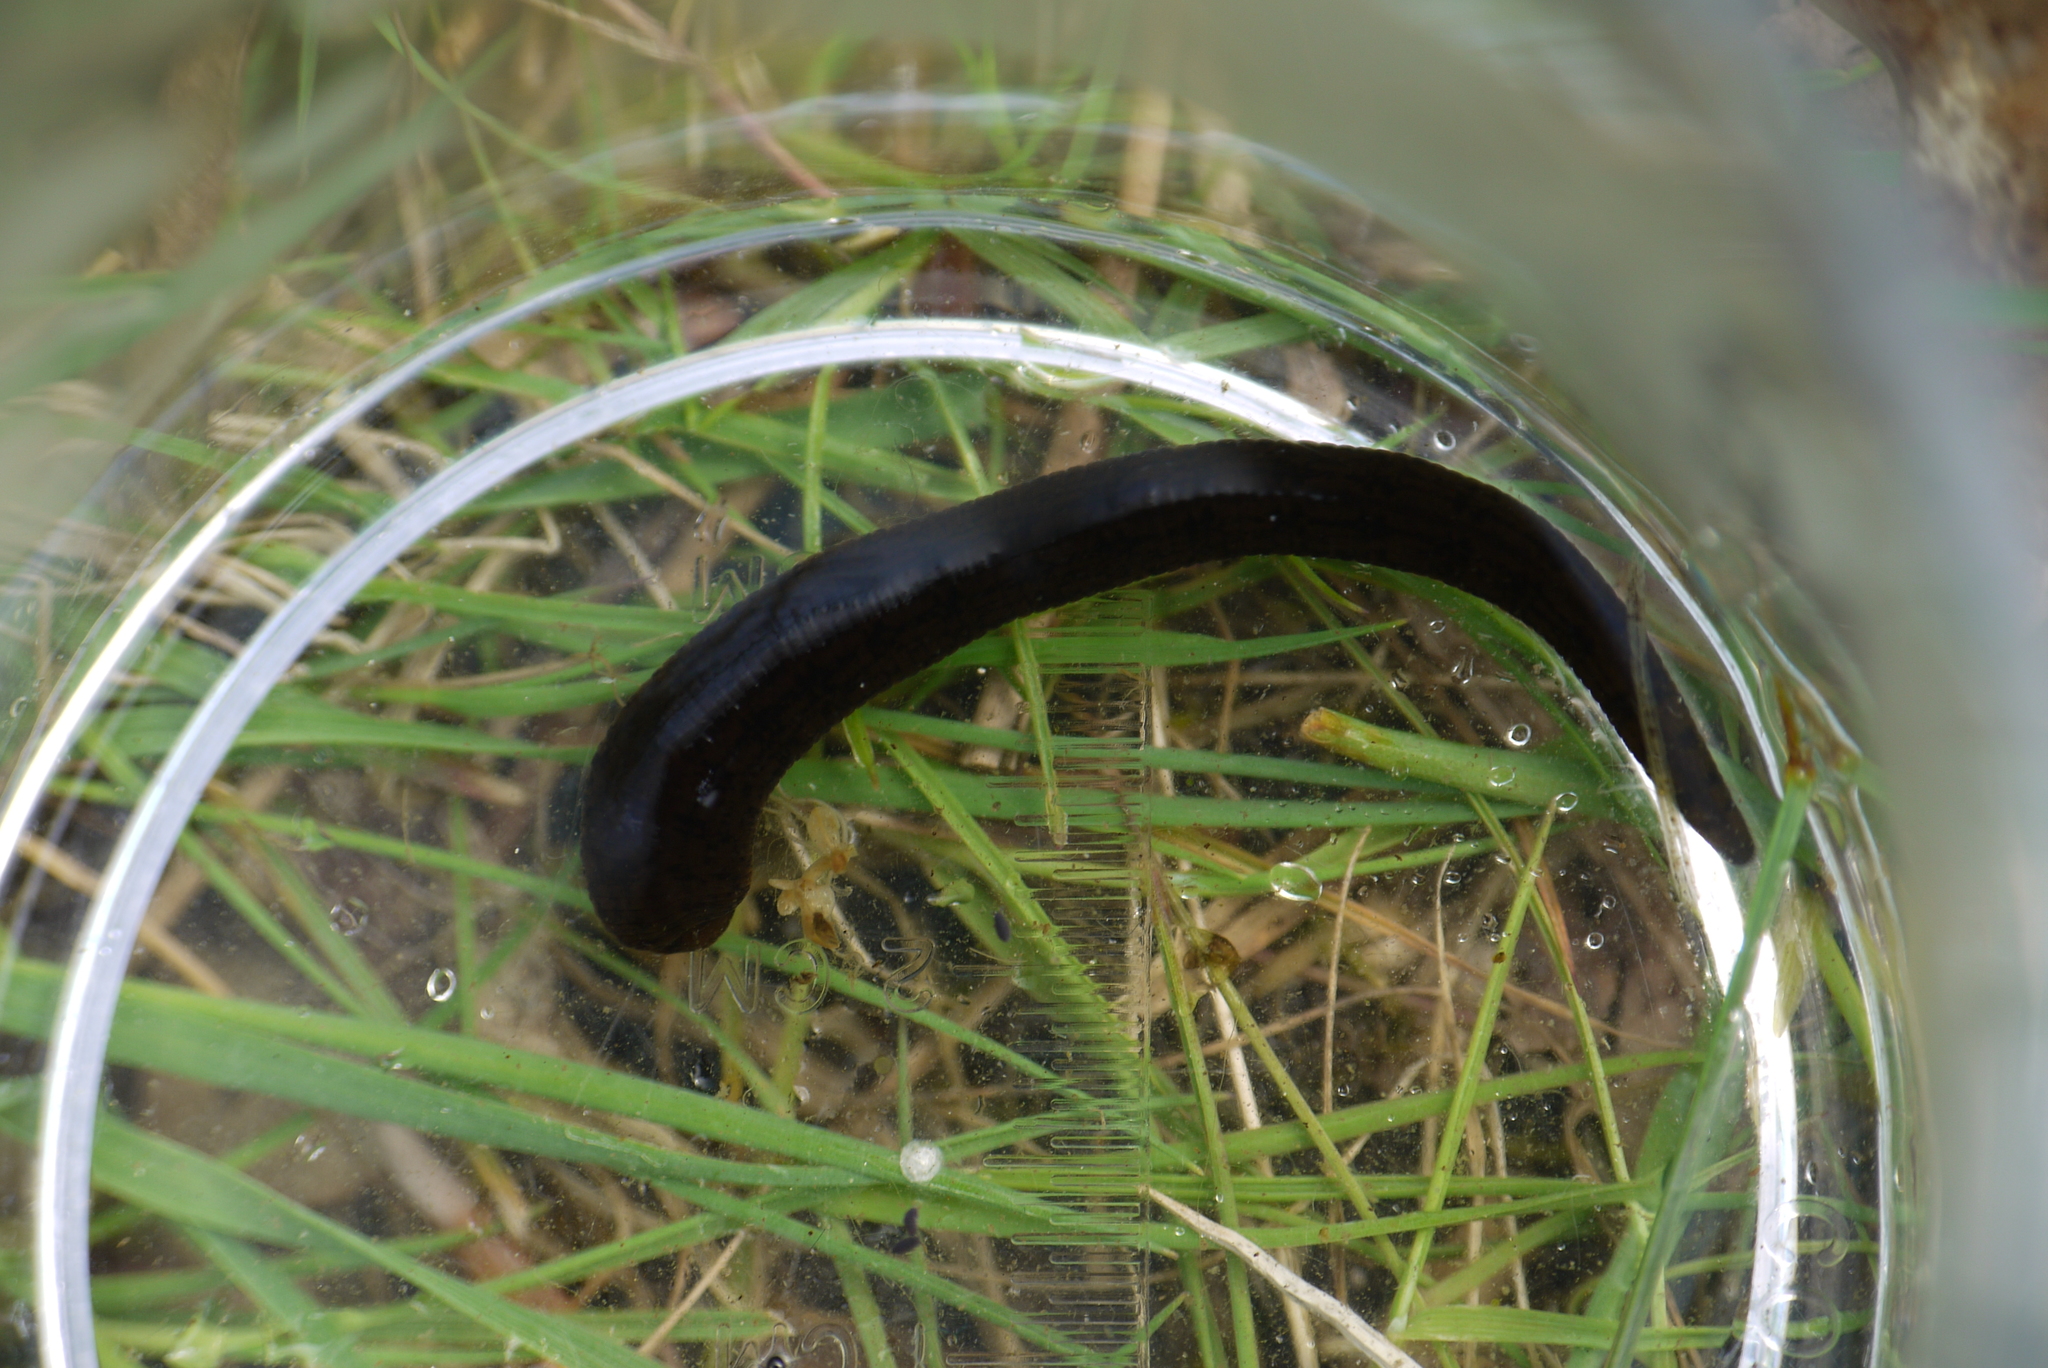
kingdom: Animalia
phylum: Annelida
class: Clitellata
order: Arhynchobdellida
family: Haemopidae
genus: Haemopis
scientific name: Haemopis sanguisuga
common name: Horse leech
